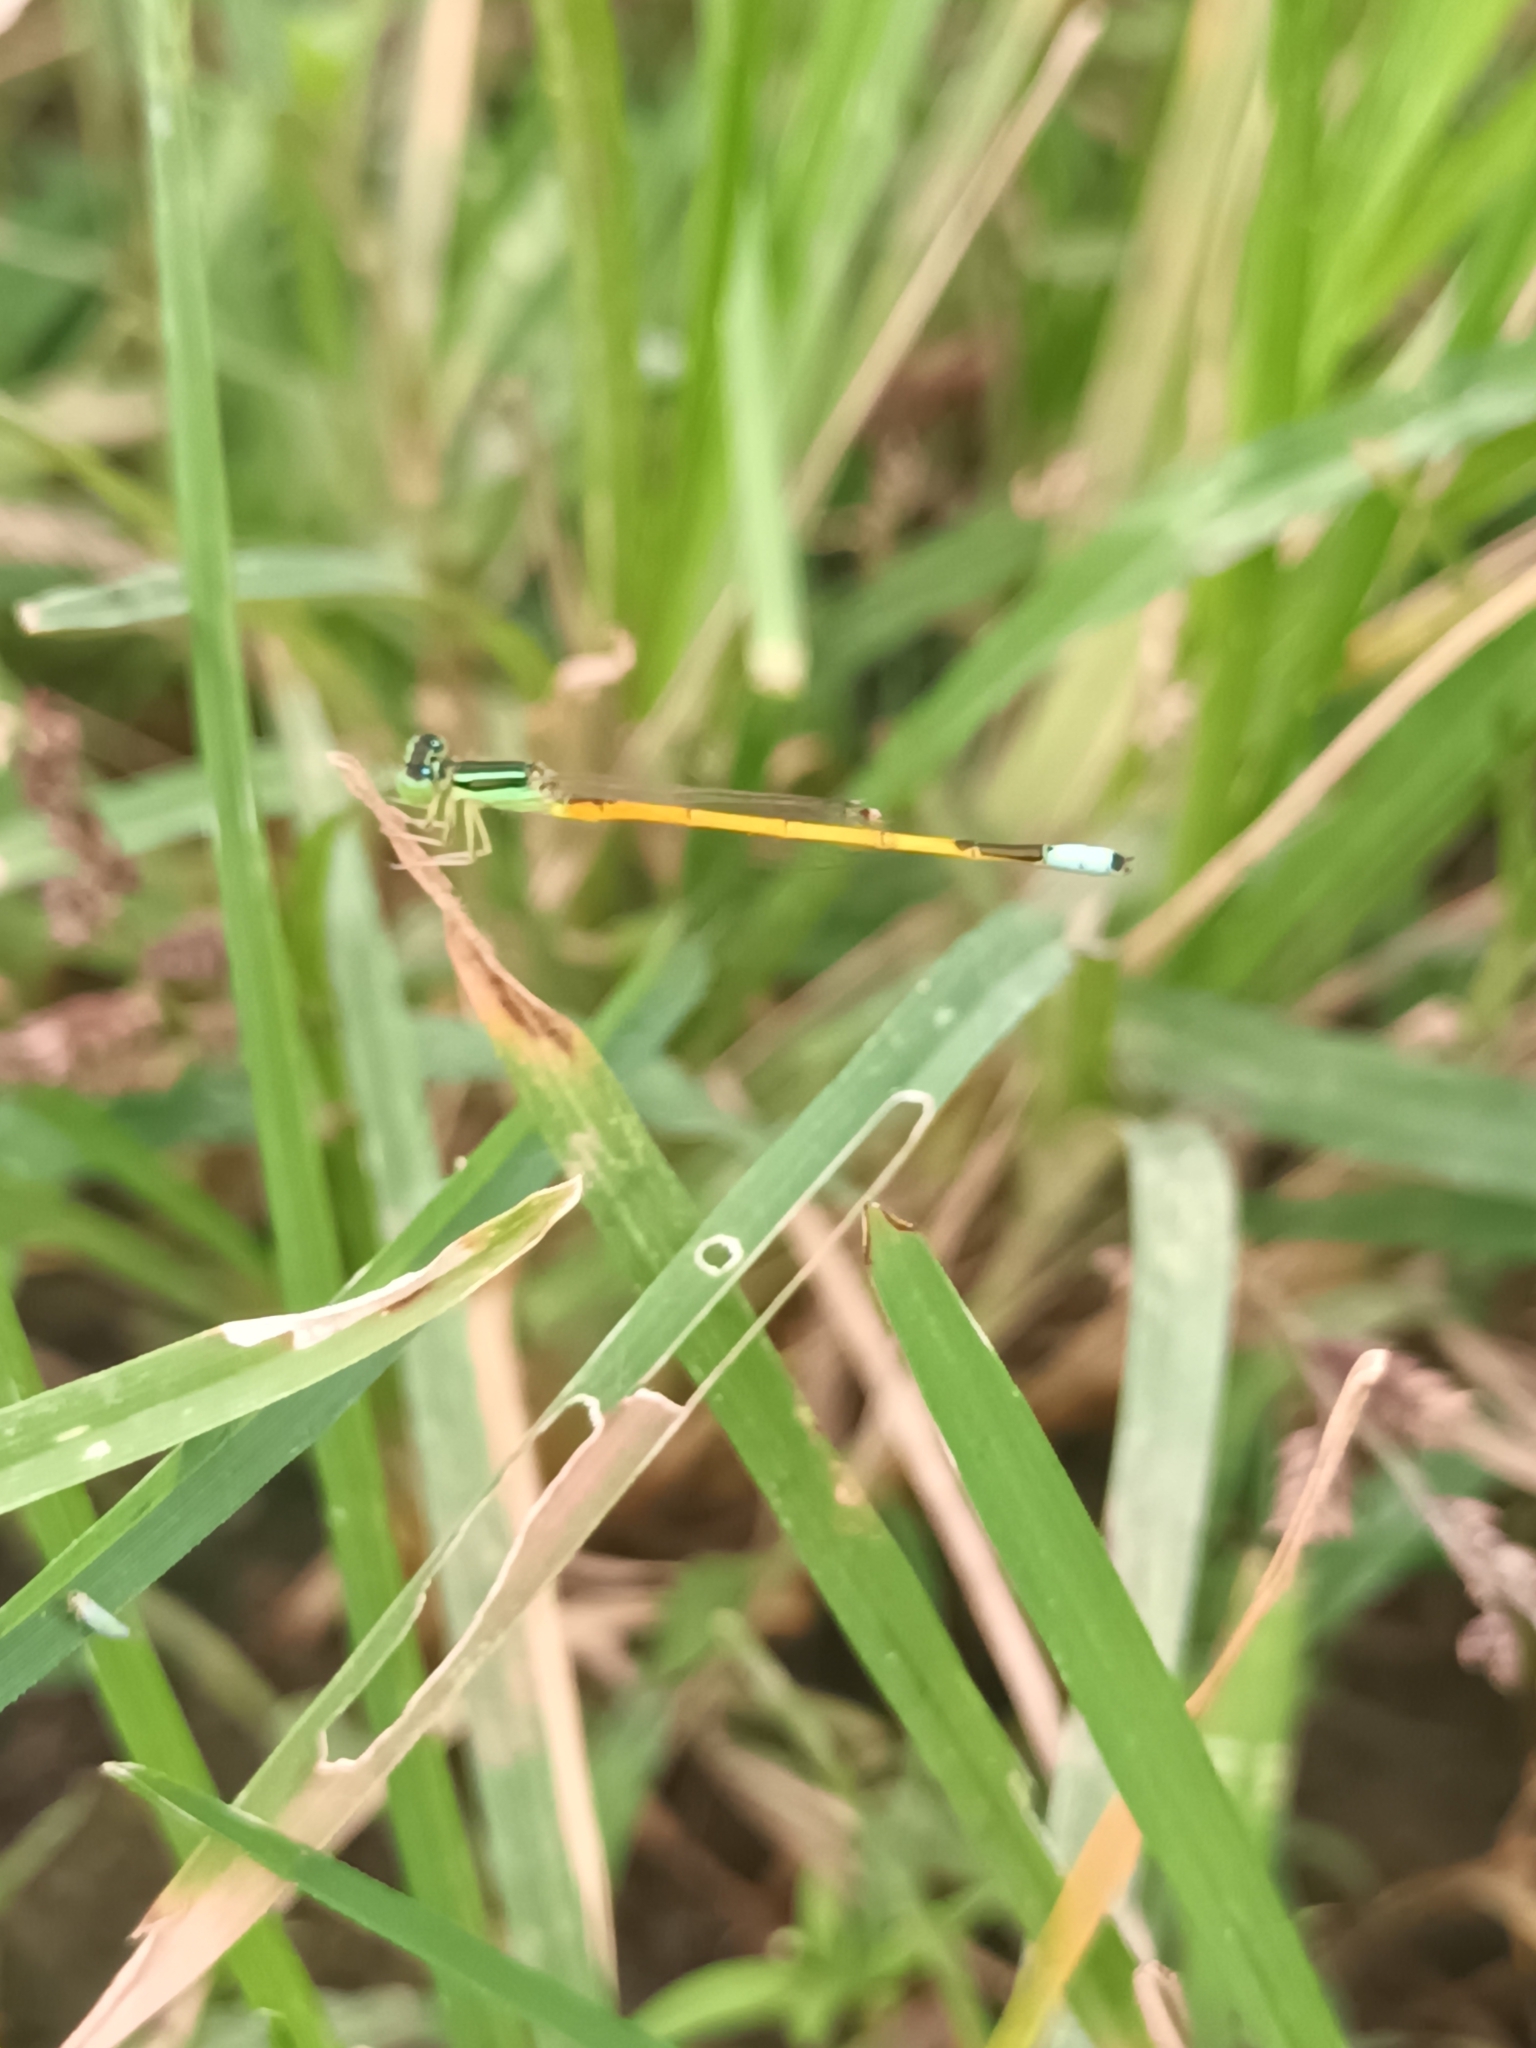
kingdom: Animalia
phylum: Arthropoda
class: Insecta
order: Odonata
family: Coenagrionidae
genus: Ischnura
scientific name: Ischnura rubilio
